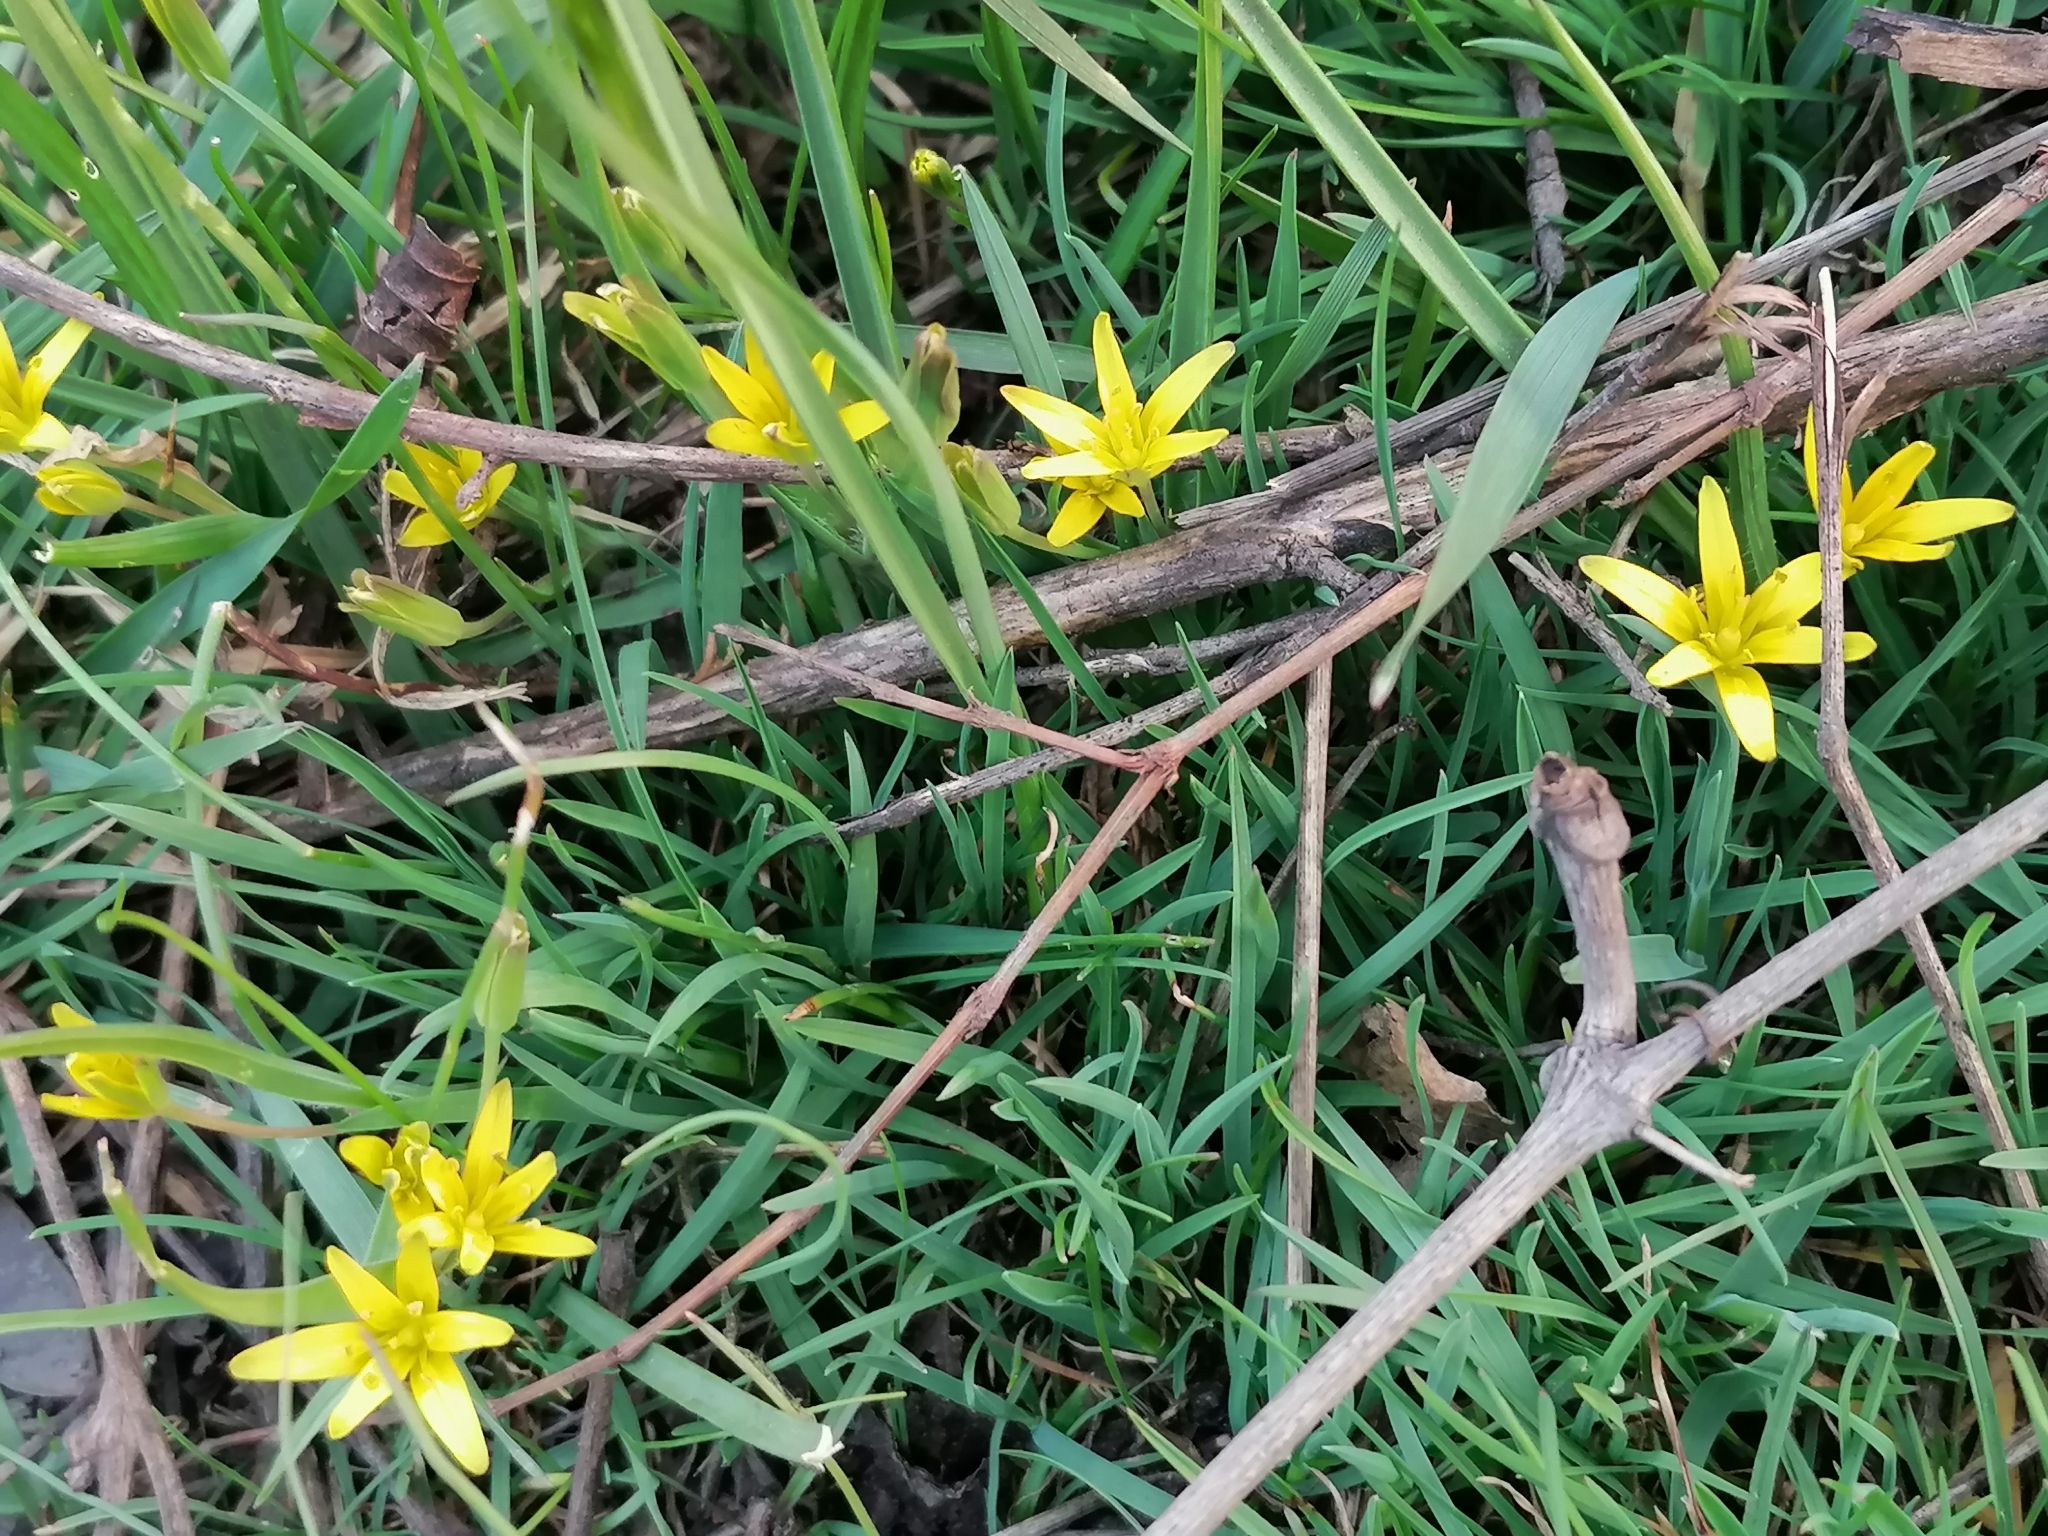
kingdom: Plantae
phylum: Tracheophyta
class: Liliopsida
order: Liliales
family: Liliaceae
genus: Gagea
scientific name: Gagea lutea
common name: Yellow star-of-bethlehem
